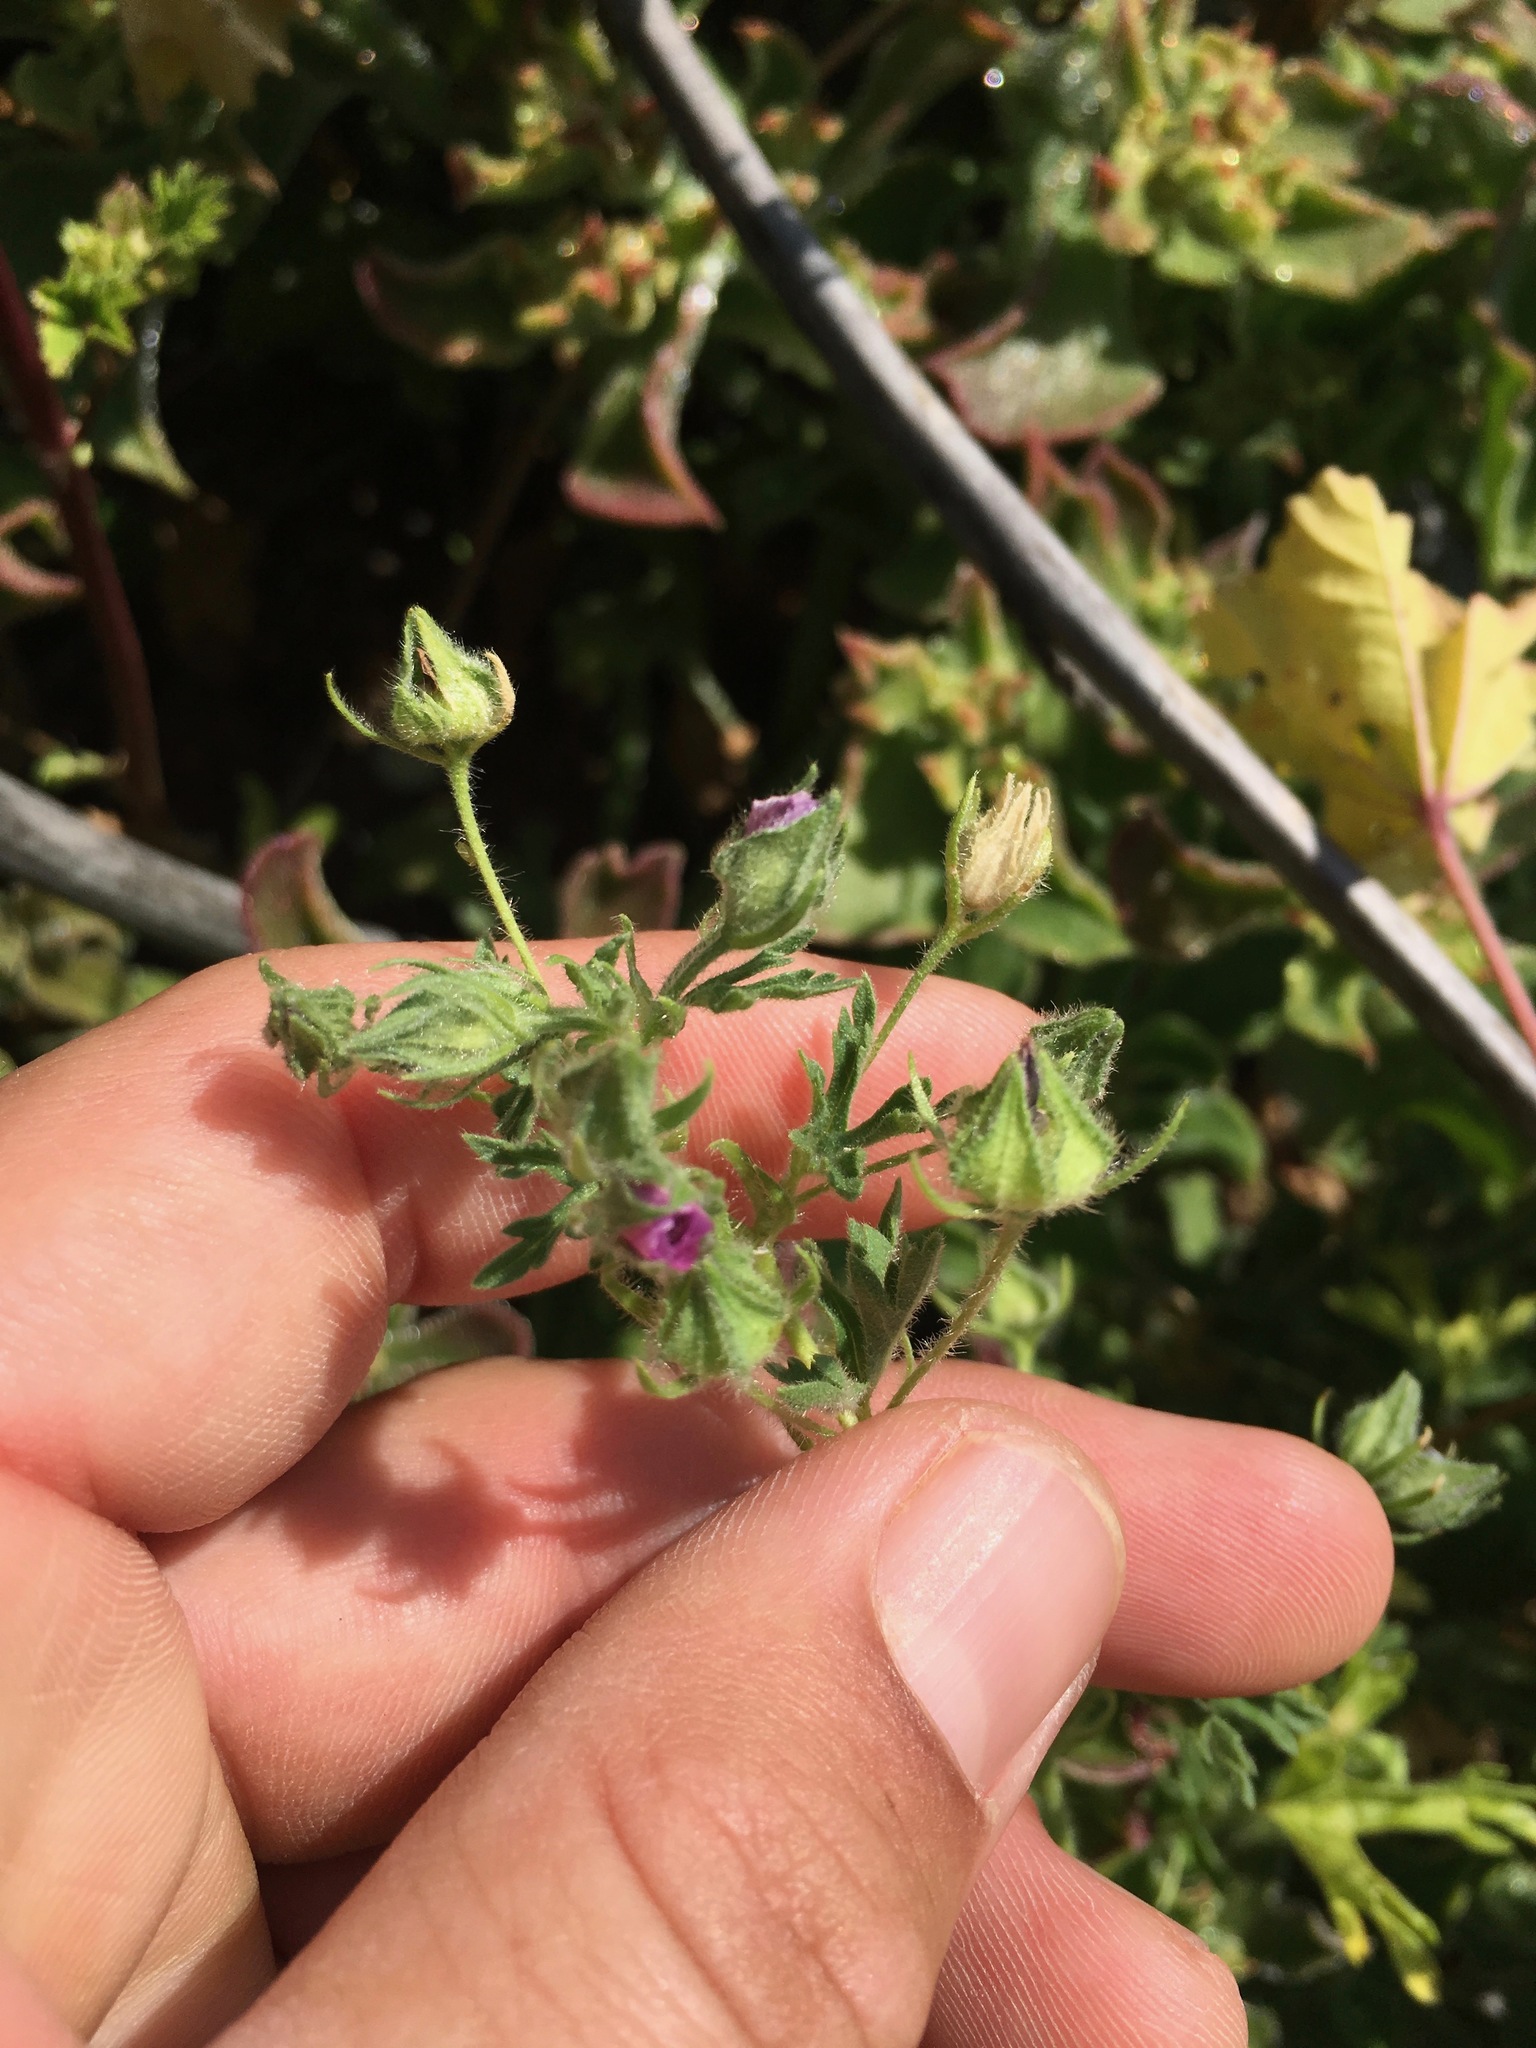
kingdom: Plantae
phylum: Tracheophyta
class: Magnoliopsida
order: Malvales
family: Malvaceae
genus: Eremalche
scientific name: Eremalche exilis
